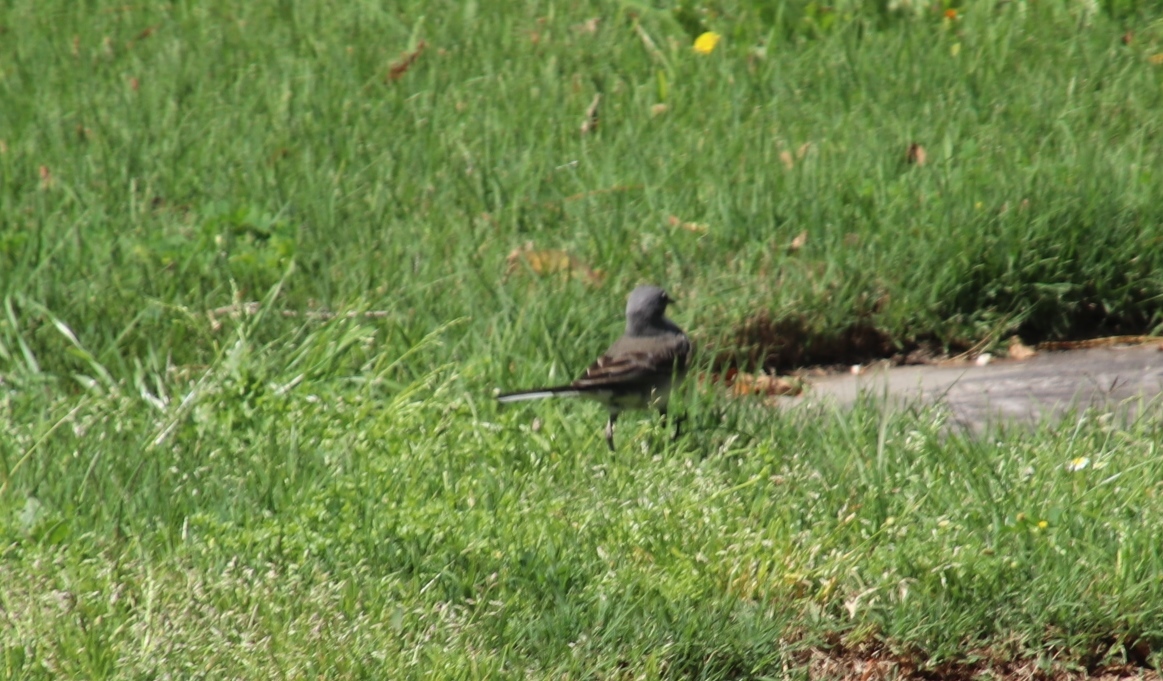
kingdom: Animalia
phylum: Chordata
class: Aves
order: Passeriformes
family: Motacillidae
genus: Motacilla
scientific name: Motacilla capensis
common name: Cape wagtail
